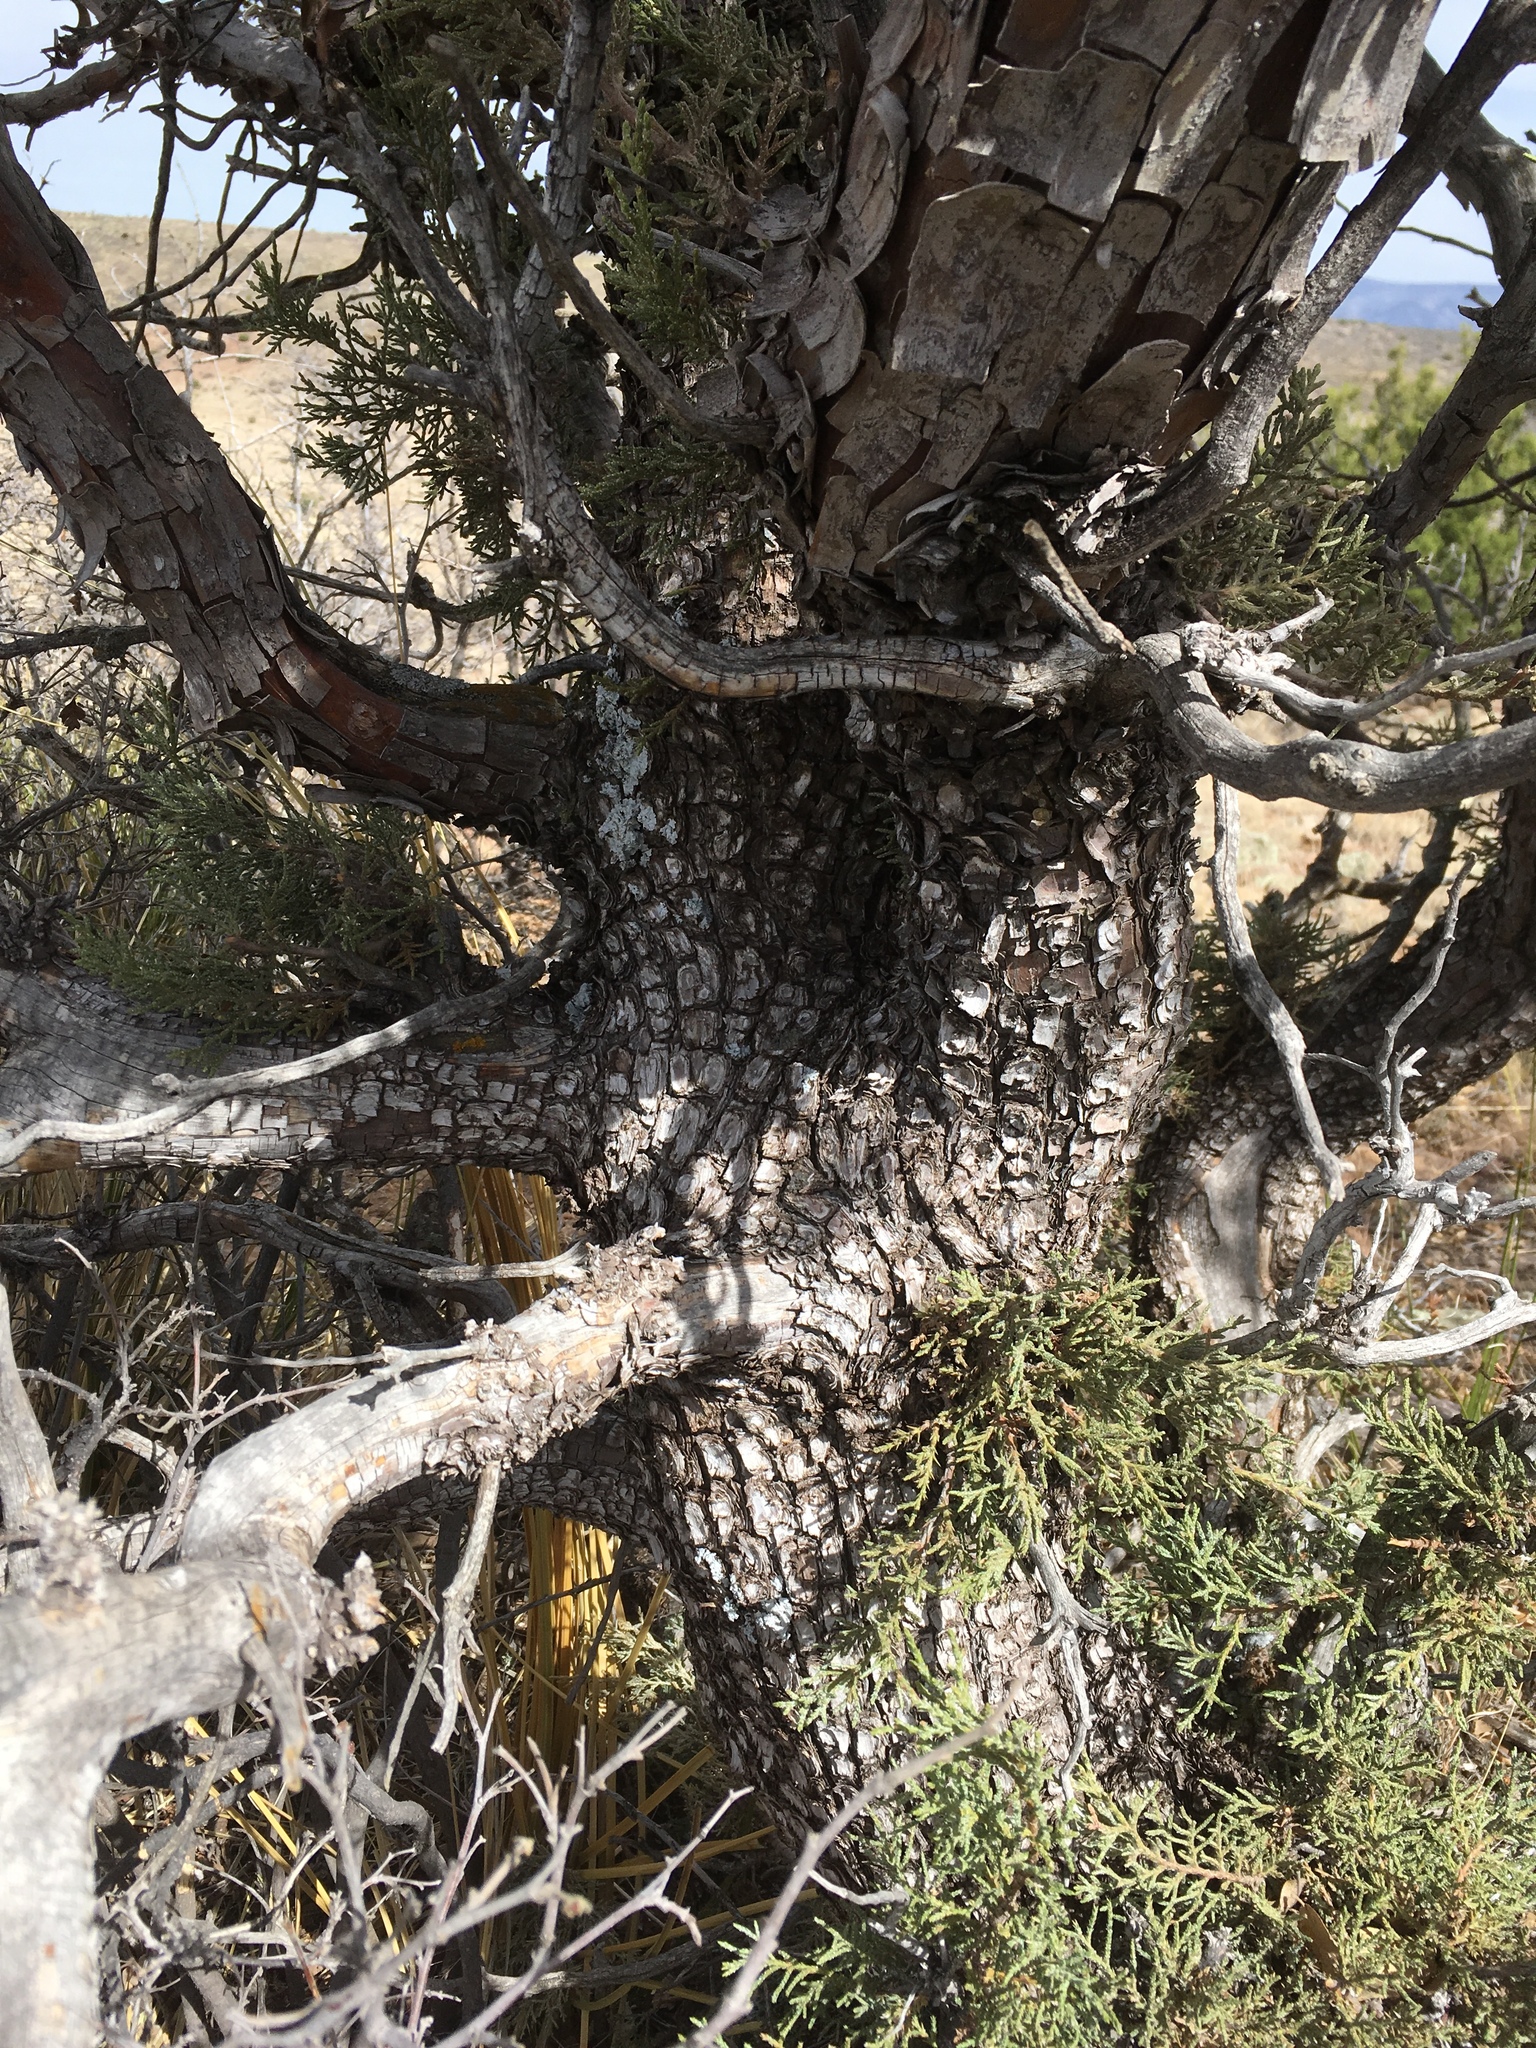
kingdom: Plantae
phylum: Tracheophyta
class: Pinopsida
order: Pinales
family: Cupressaceae
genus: Juniperus
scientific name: Juniperus deppeana
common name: Alligator juniper
